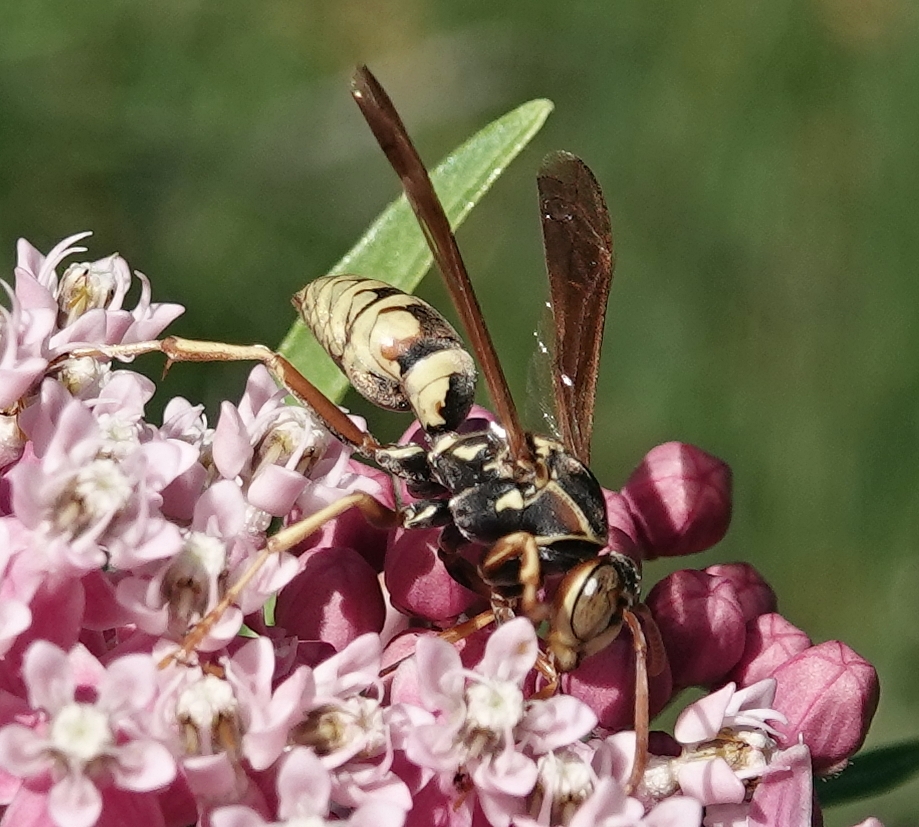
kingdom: Animalia
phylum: Arthropoda
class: Insecta
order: Hymenoptera
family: Eumenidae
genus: Polistes
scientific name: Polistes aurifer
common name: Paper wasp
